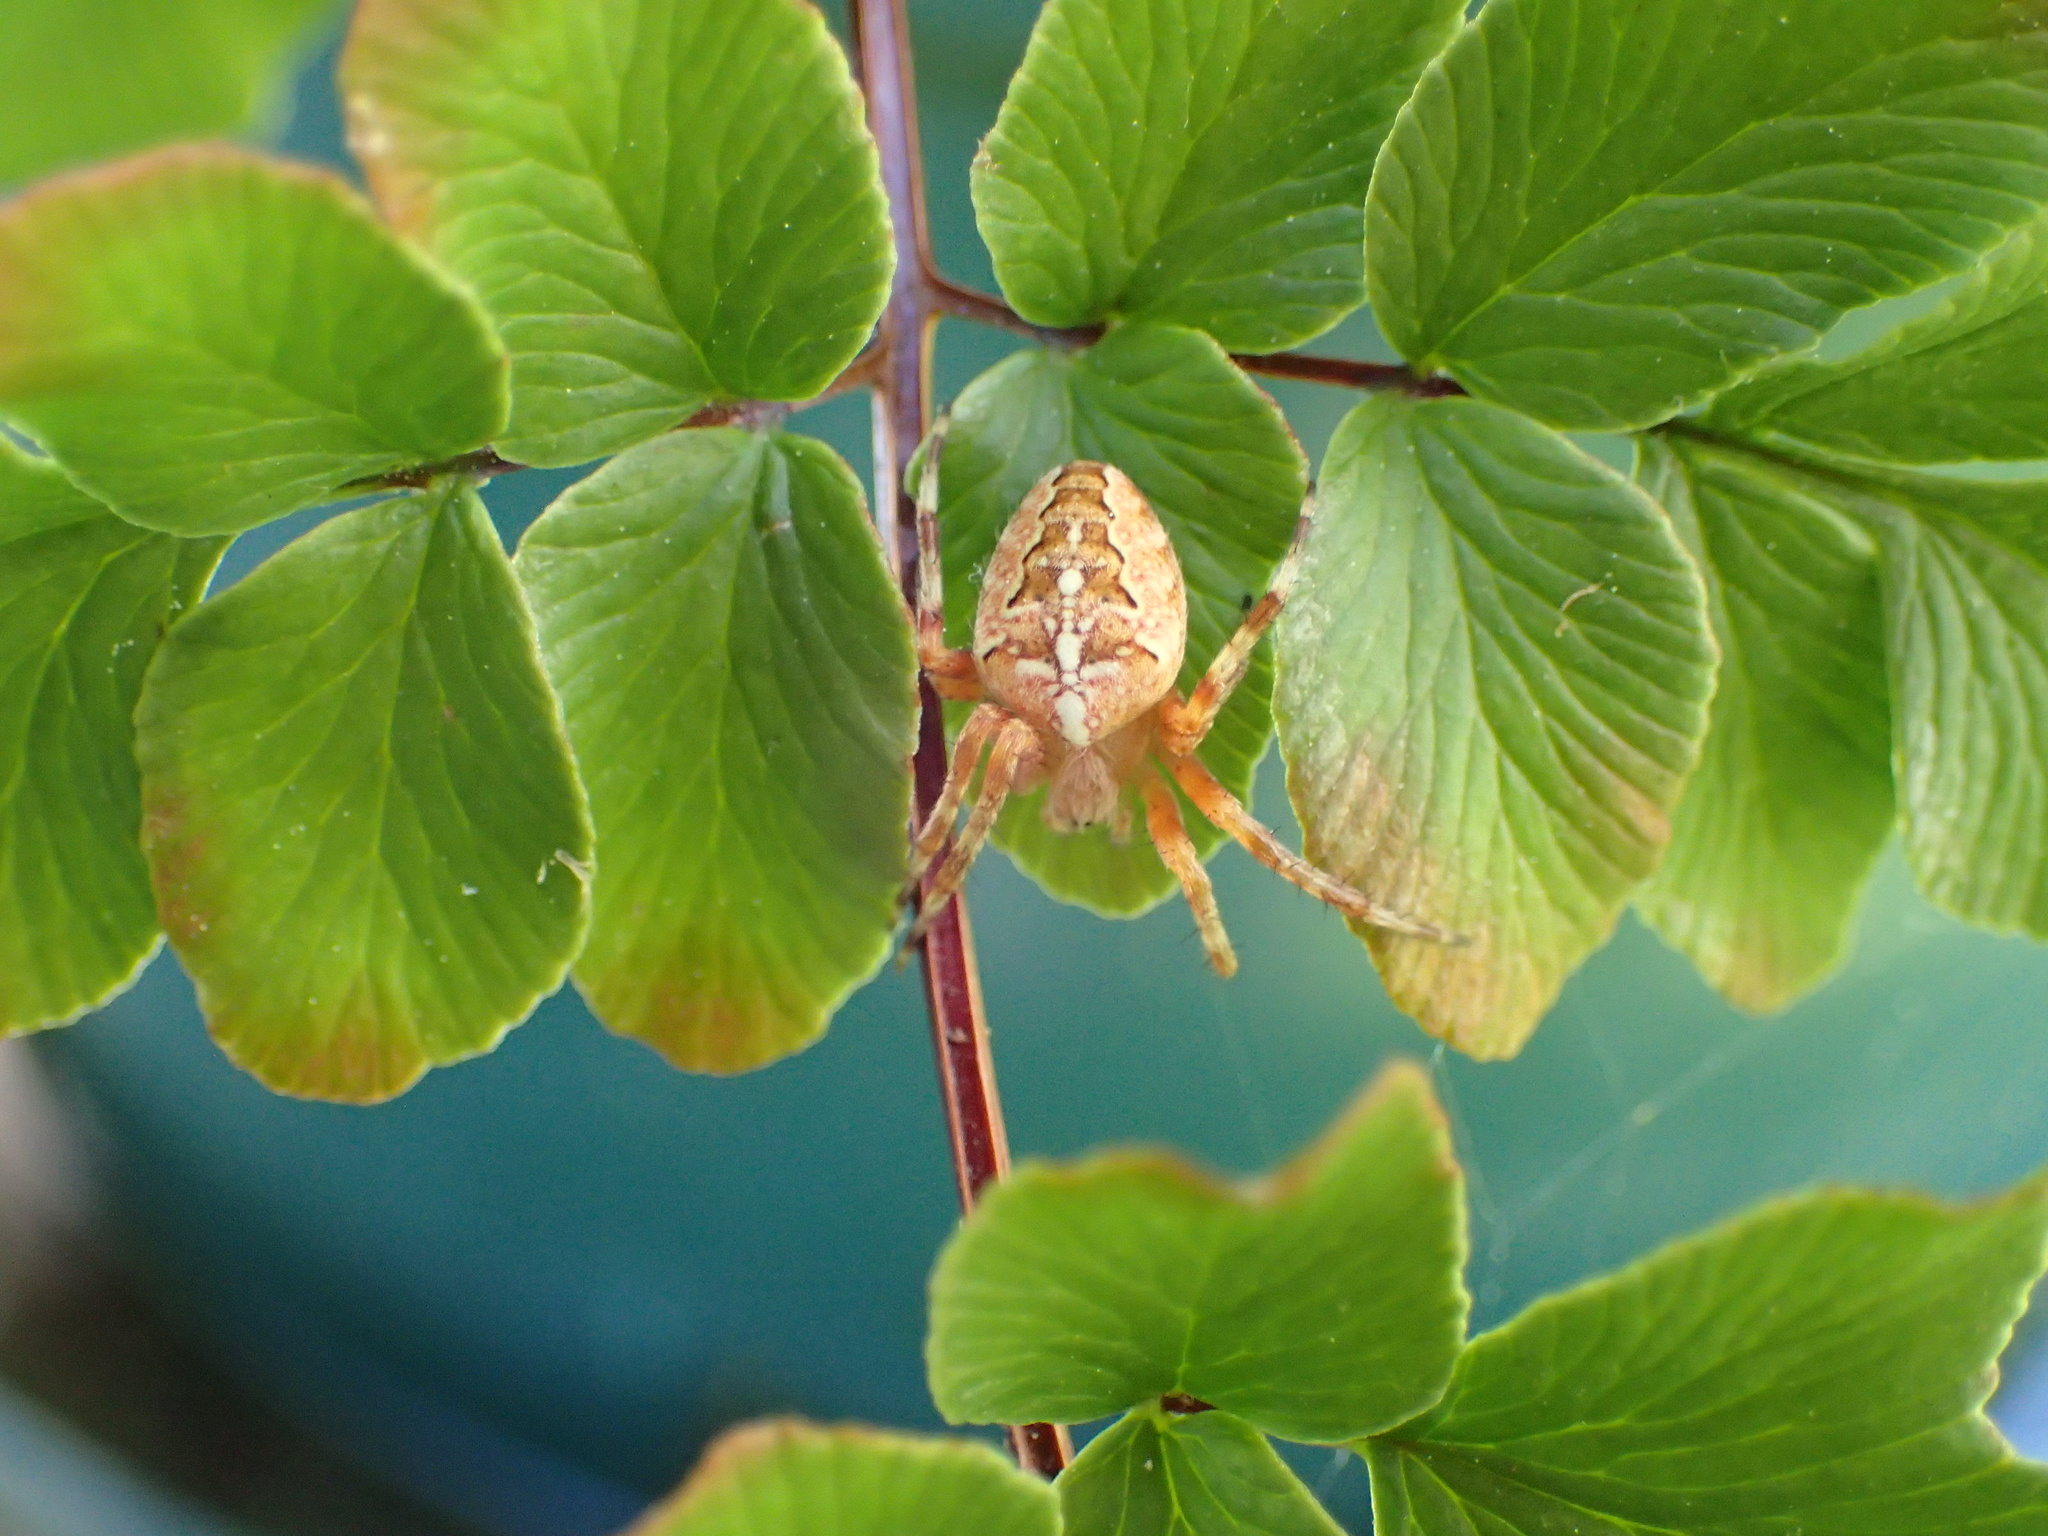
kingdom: Animalia
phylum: Arthropoda
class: Arachnida
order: Araneae
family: Araneidae
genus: Araneus
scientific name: Araneus diadematus
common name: Cross orbweaver
